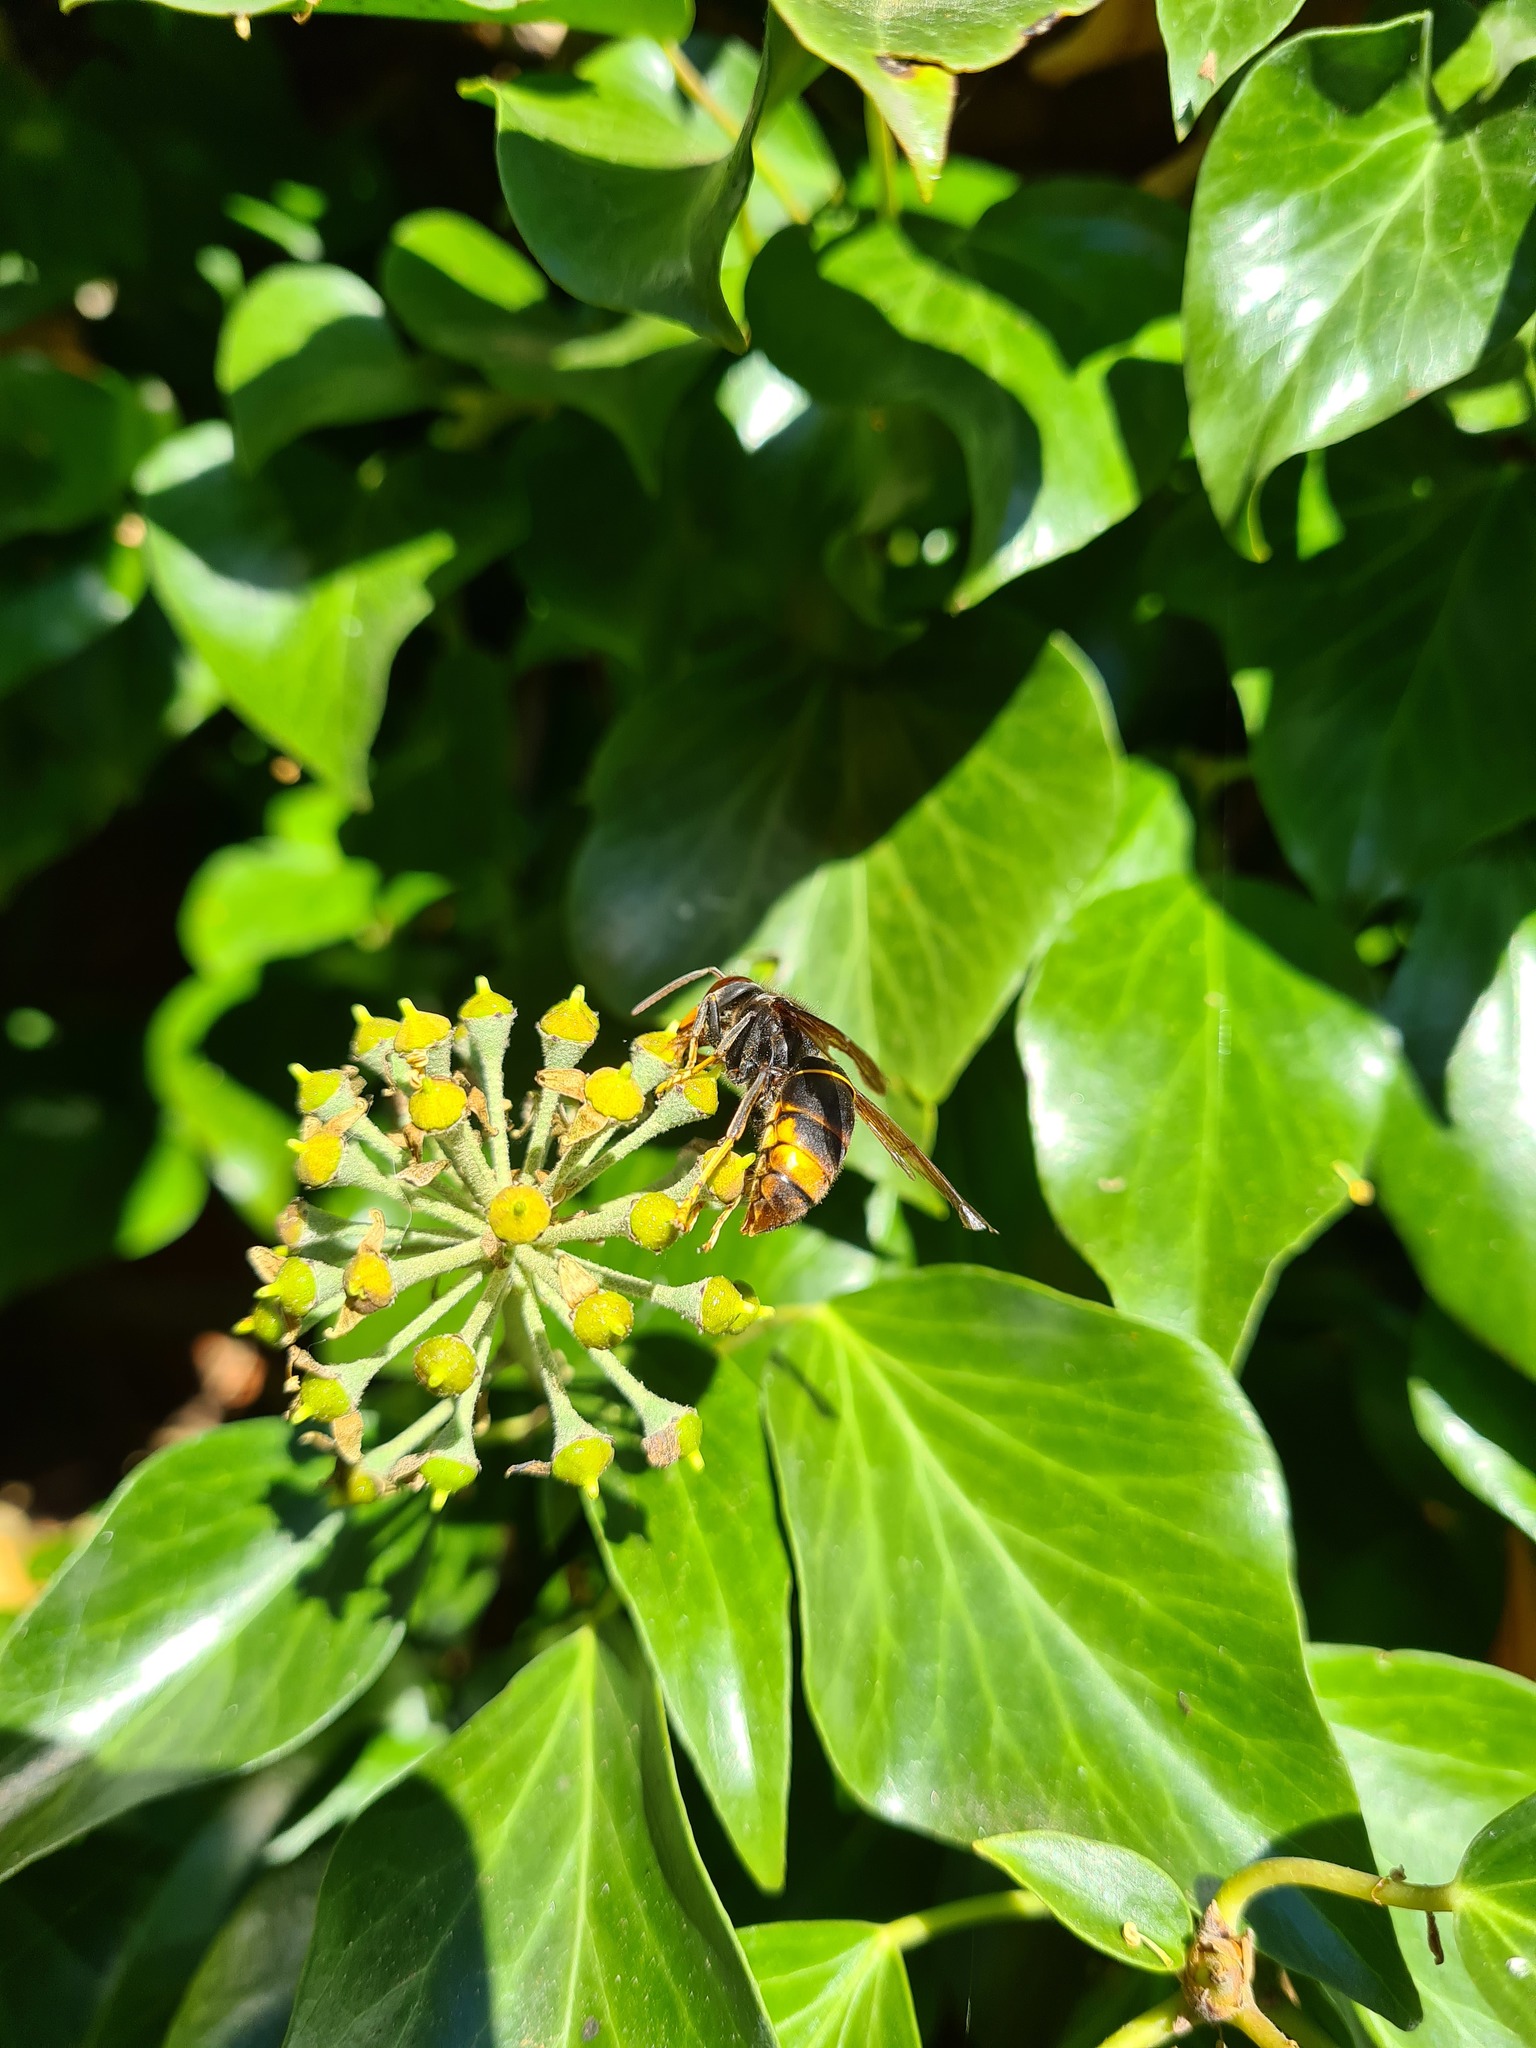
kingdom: Animalia
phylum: Arthropoda
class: Insecta
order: Hymenoptera
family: Vespidae
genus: Vespa
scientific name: Vespa velutina
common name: Asian hornet
